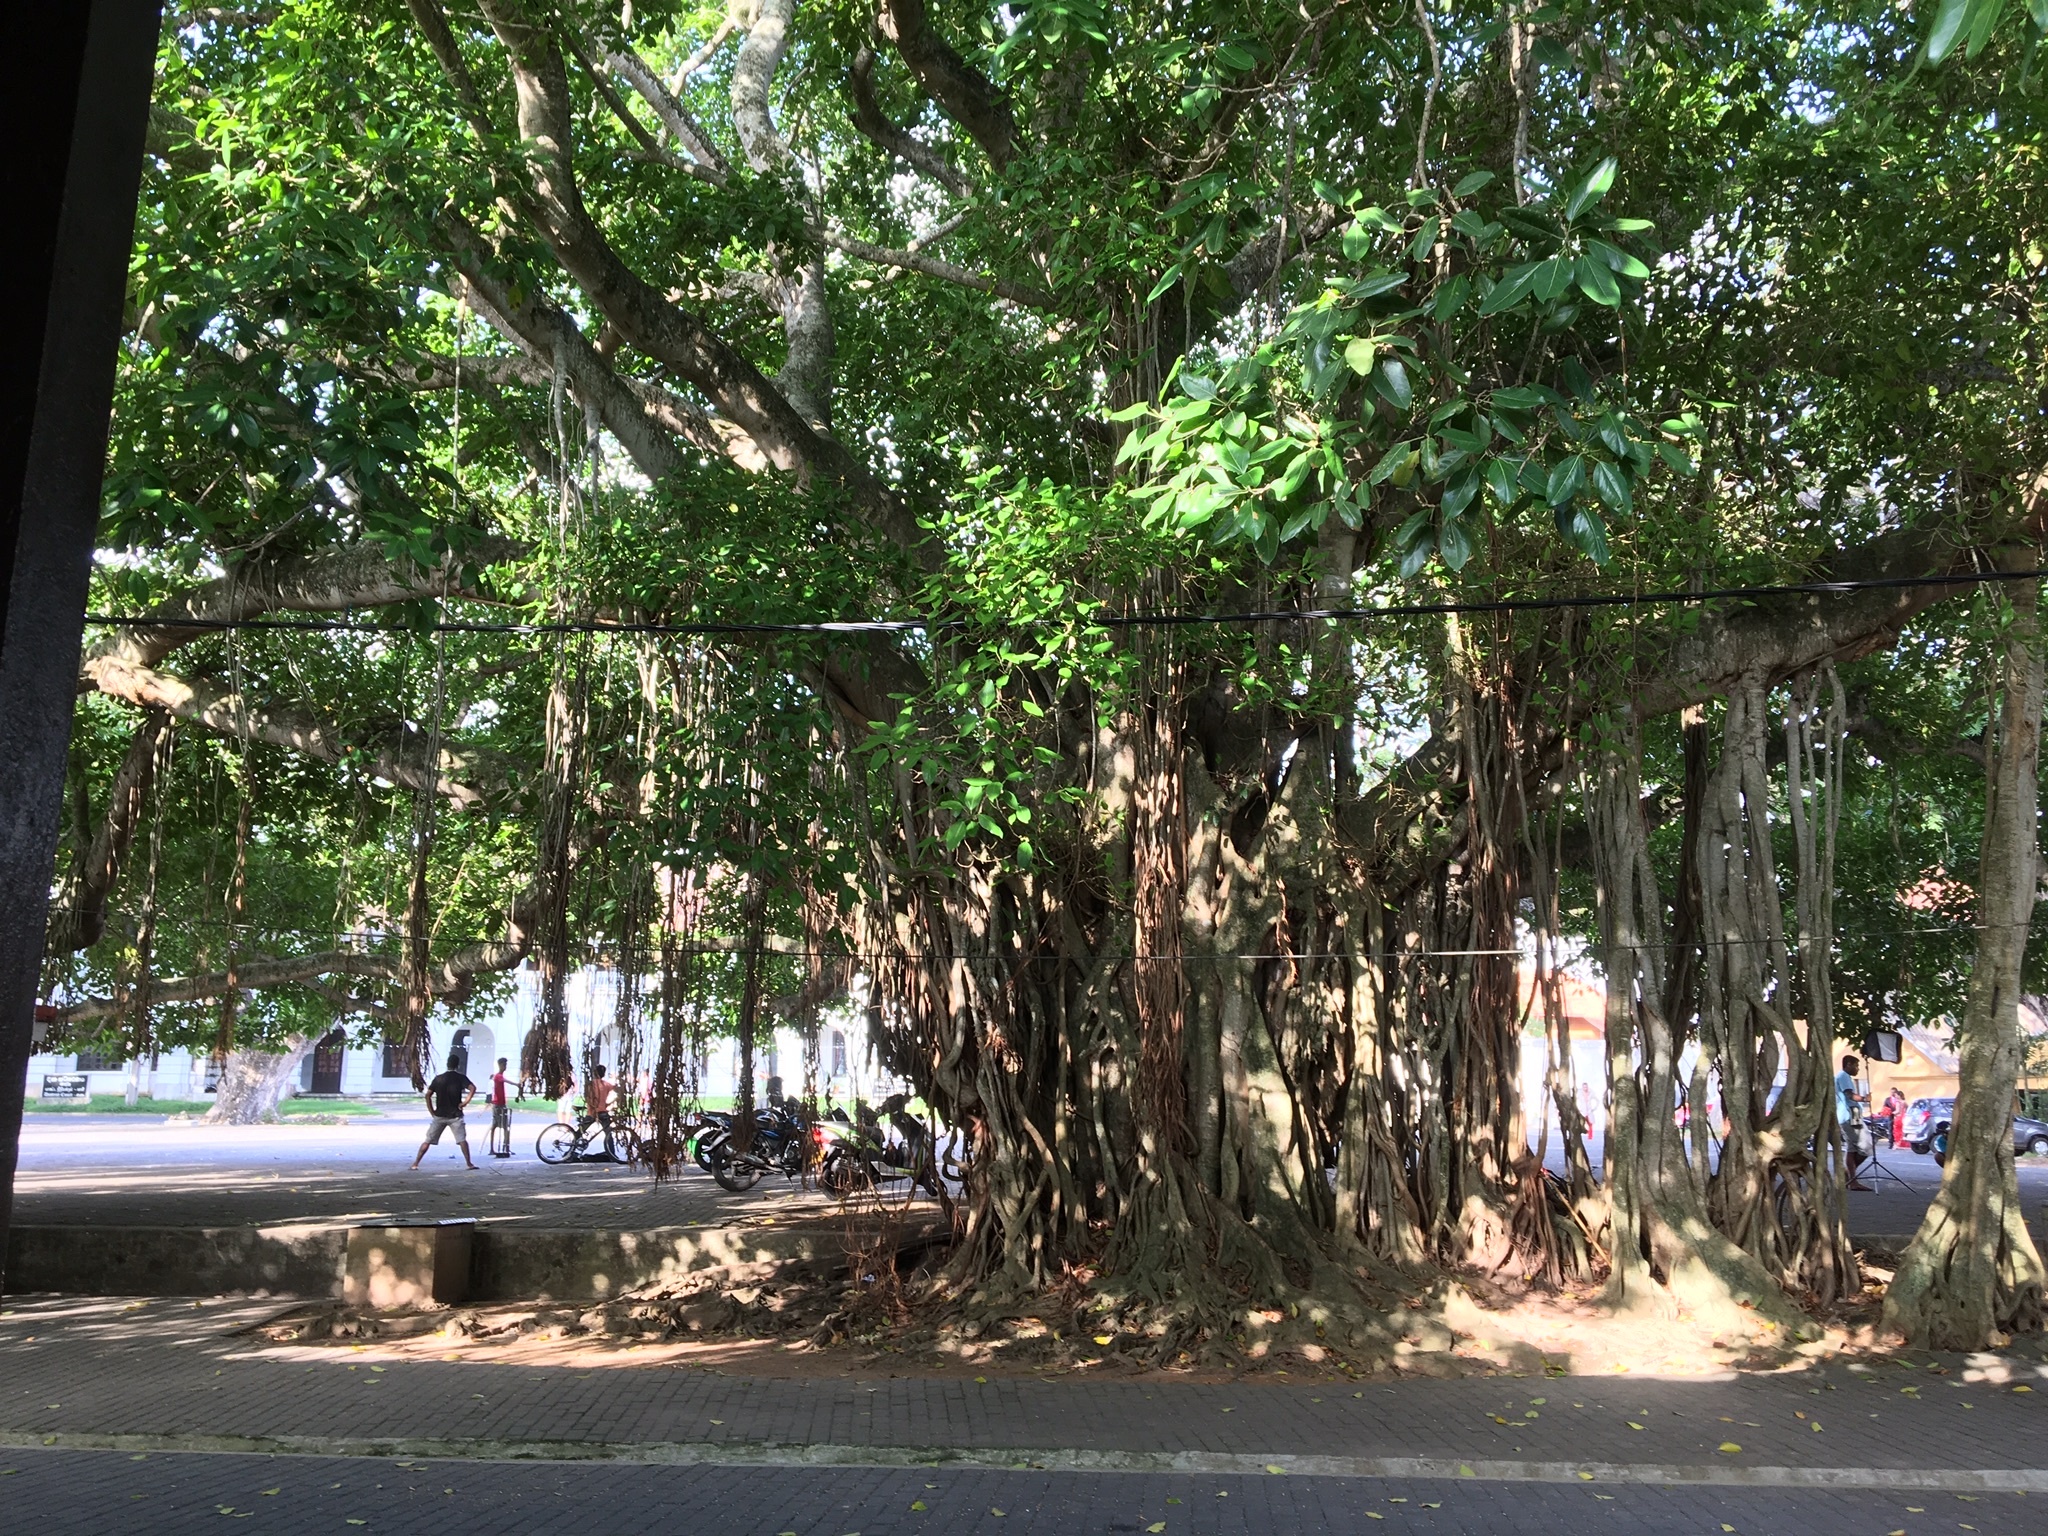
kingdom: Plantae
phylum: Tracheophyta
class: Magnoliopsida
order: Rosales
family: Moraceae
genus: Ficus
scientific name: Ficus benghalensis
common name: Indian banyan
